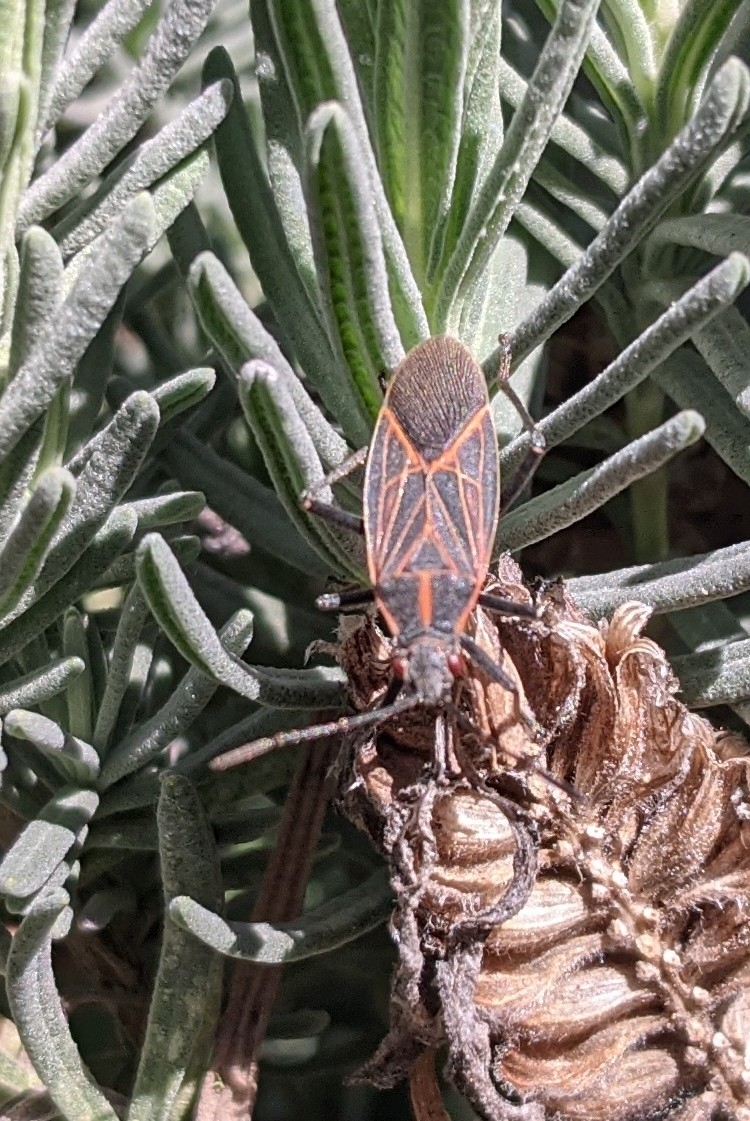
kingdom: Animalia
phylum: Arthropoda
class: Insecta
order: Hemiptera
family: Rhopalidae
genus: Boisea
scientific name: Boisea rubrolineata
